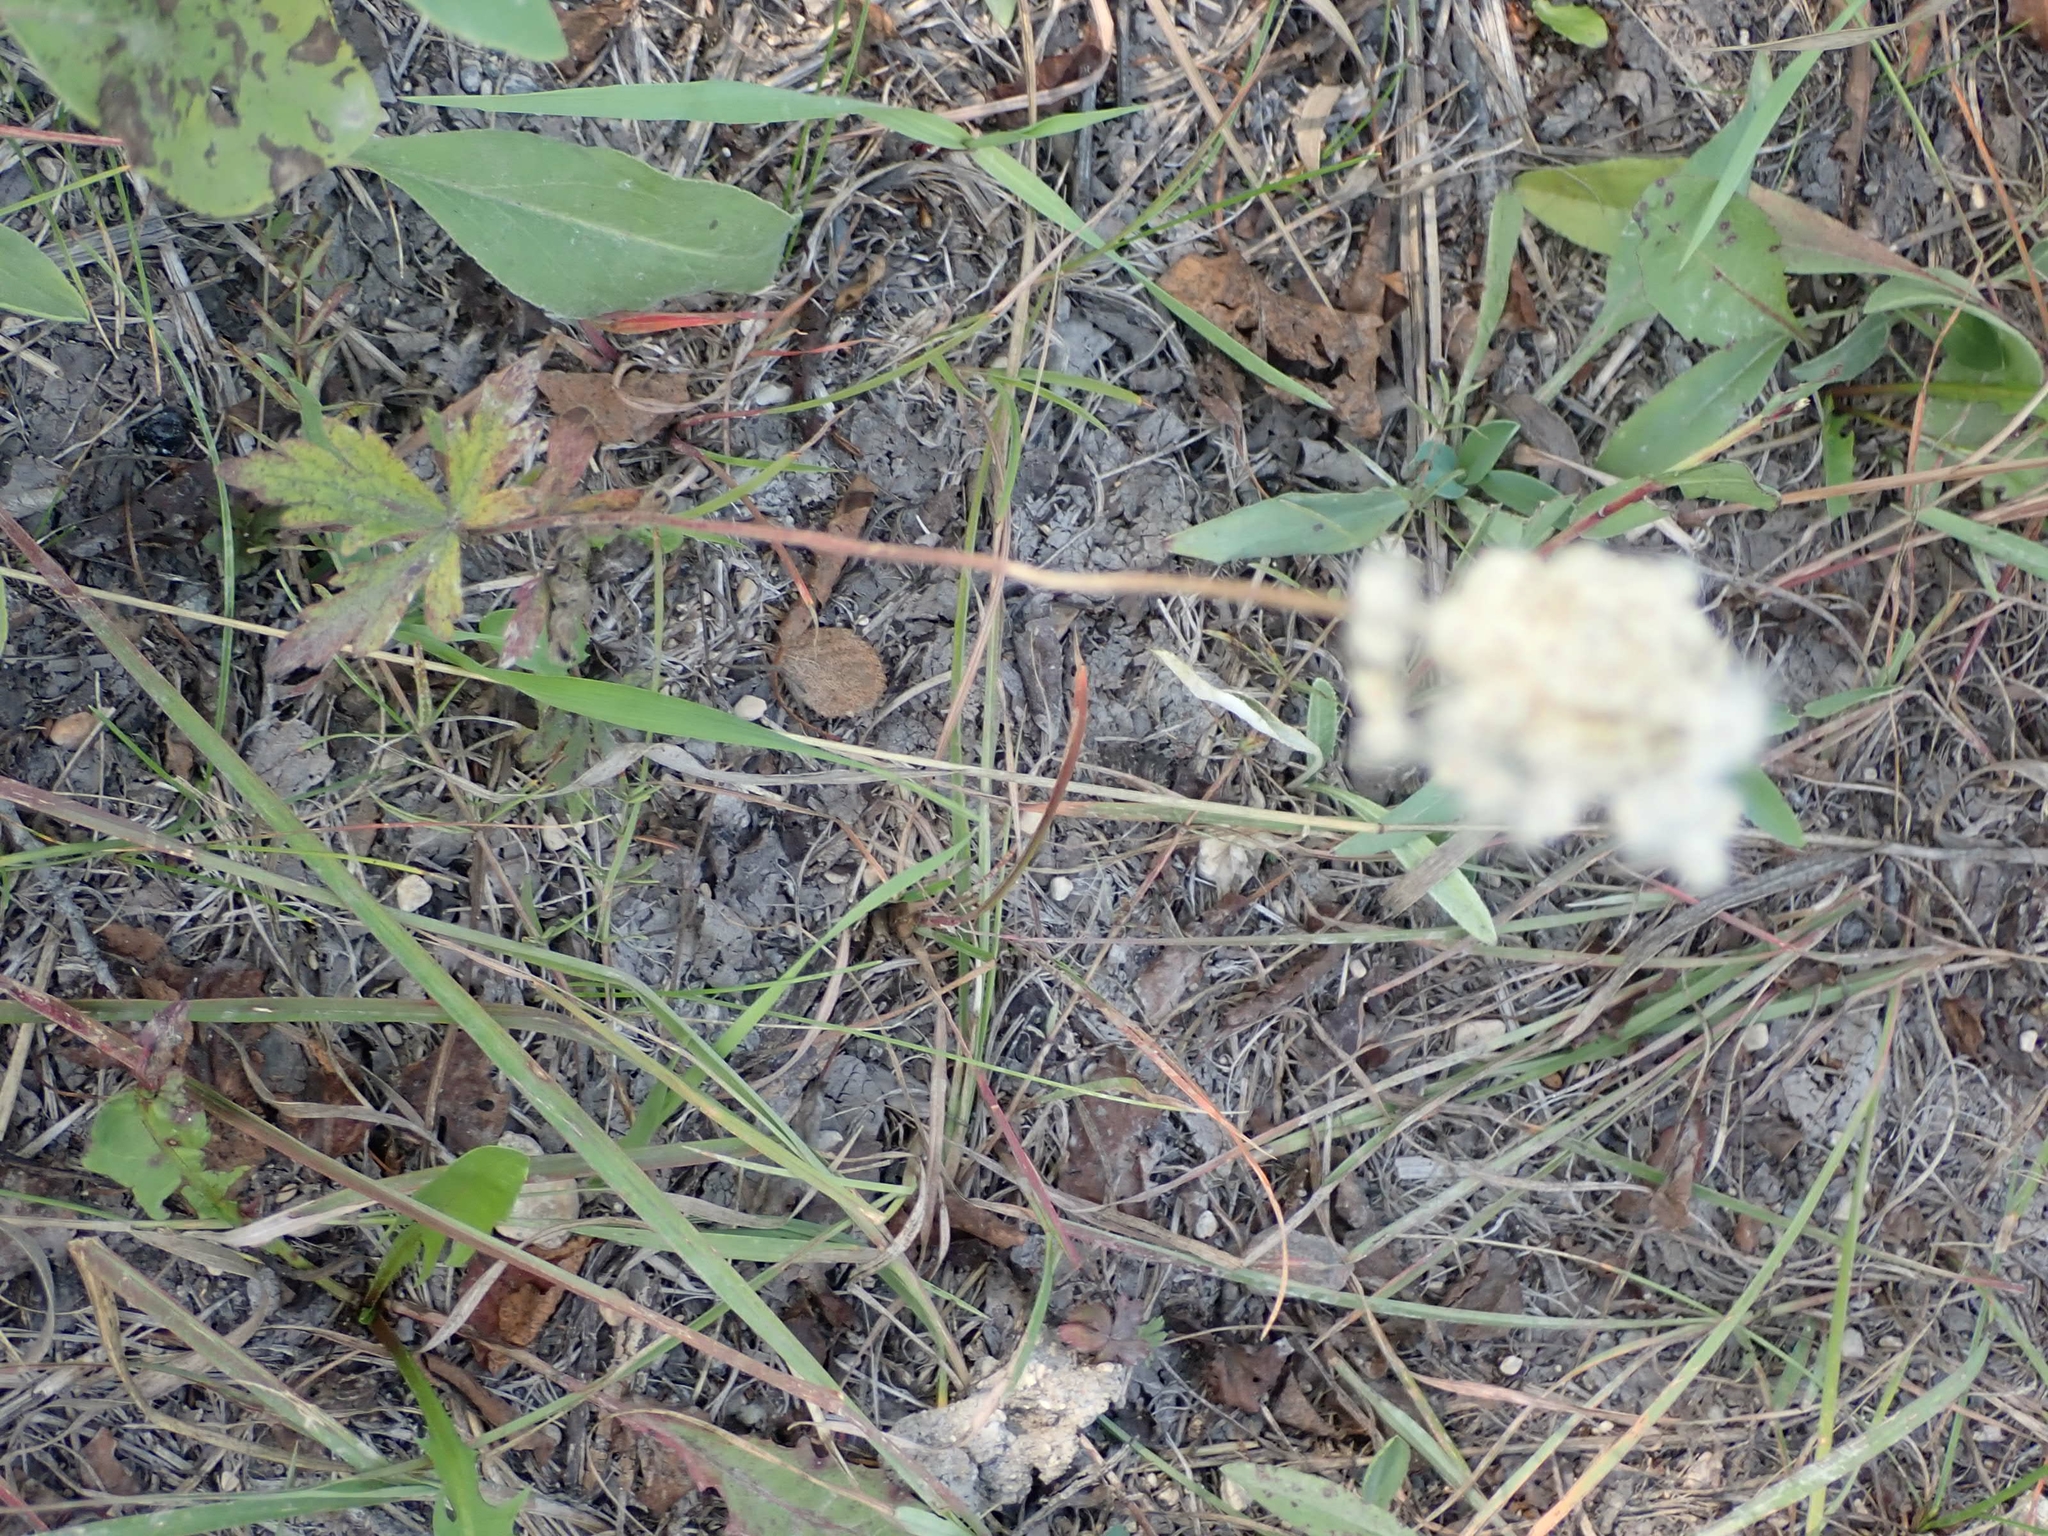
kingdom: Plantae
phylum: Tracheophyta
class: Magnoliopsida
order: Ranunculales
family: Ranunculaceae
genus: Anemone
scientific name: Anemone cylindrica
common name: Candle anemone
